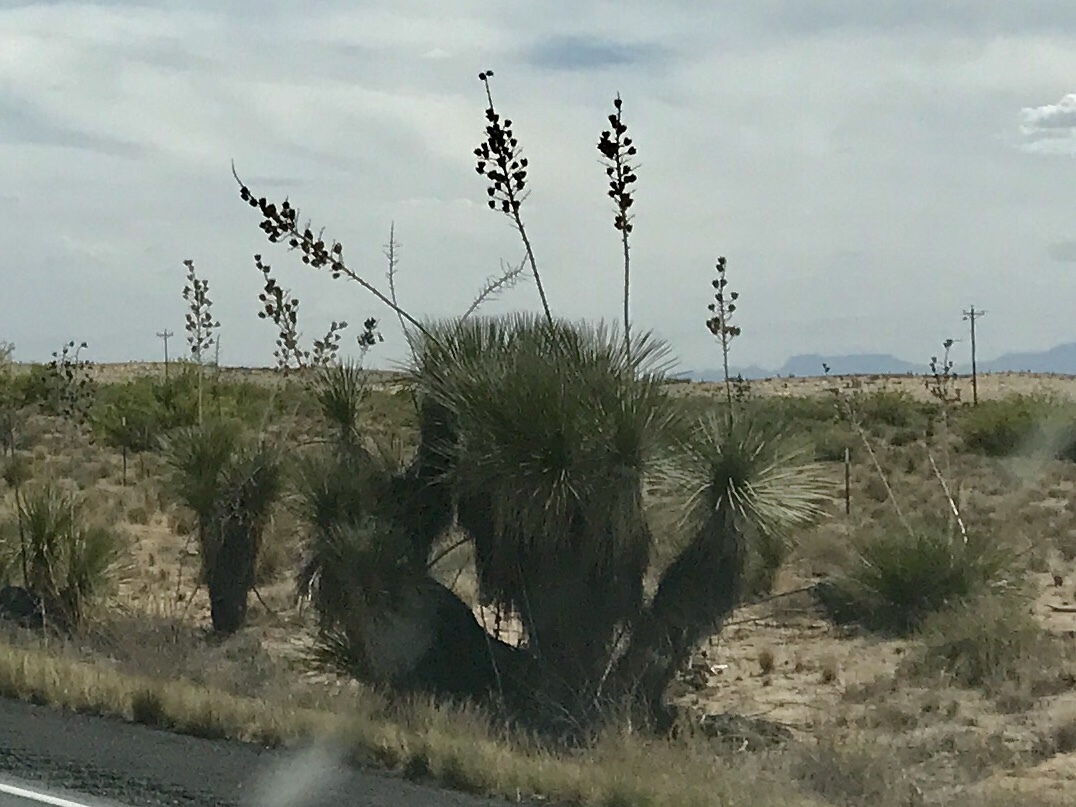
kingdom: Plantae
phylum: Tracheophyta
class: Liliopsida
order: Asparagales
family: Asparagaceae
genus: Yucca
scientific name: Yucca elata
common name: Palmella
